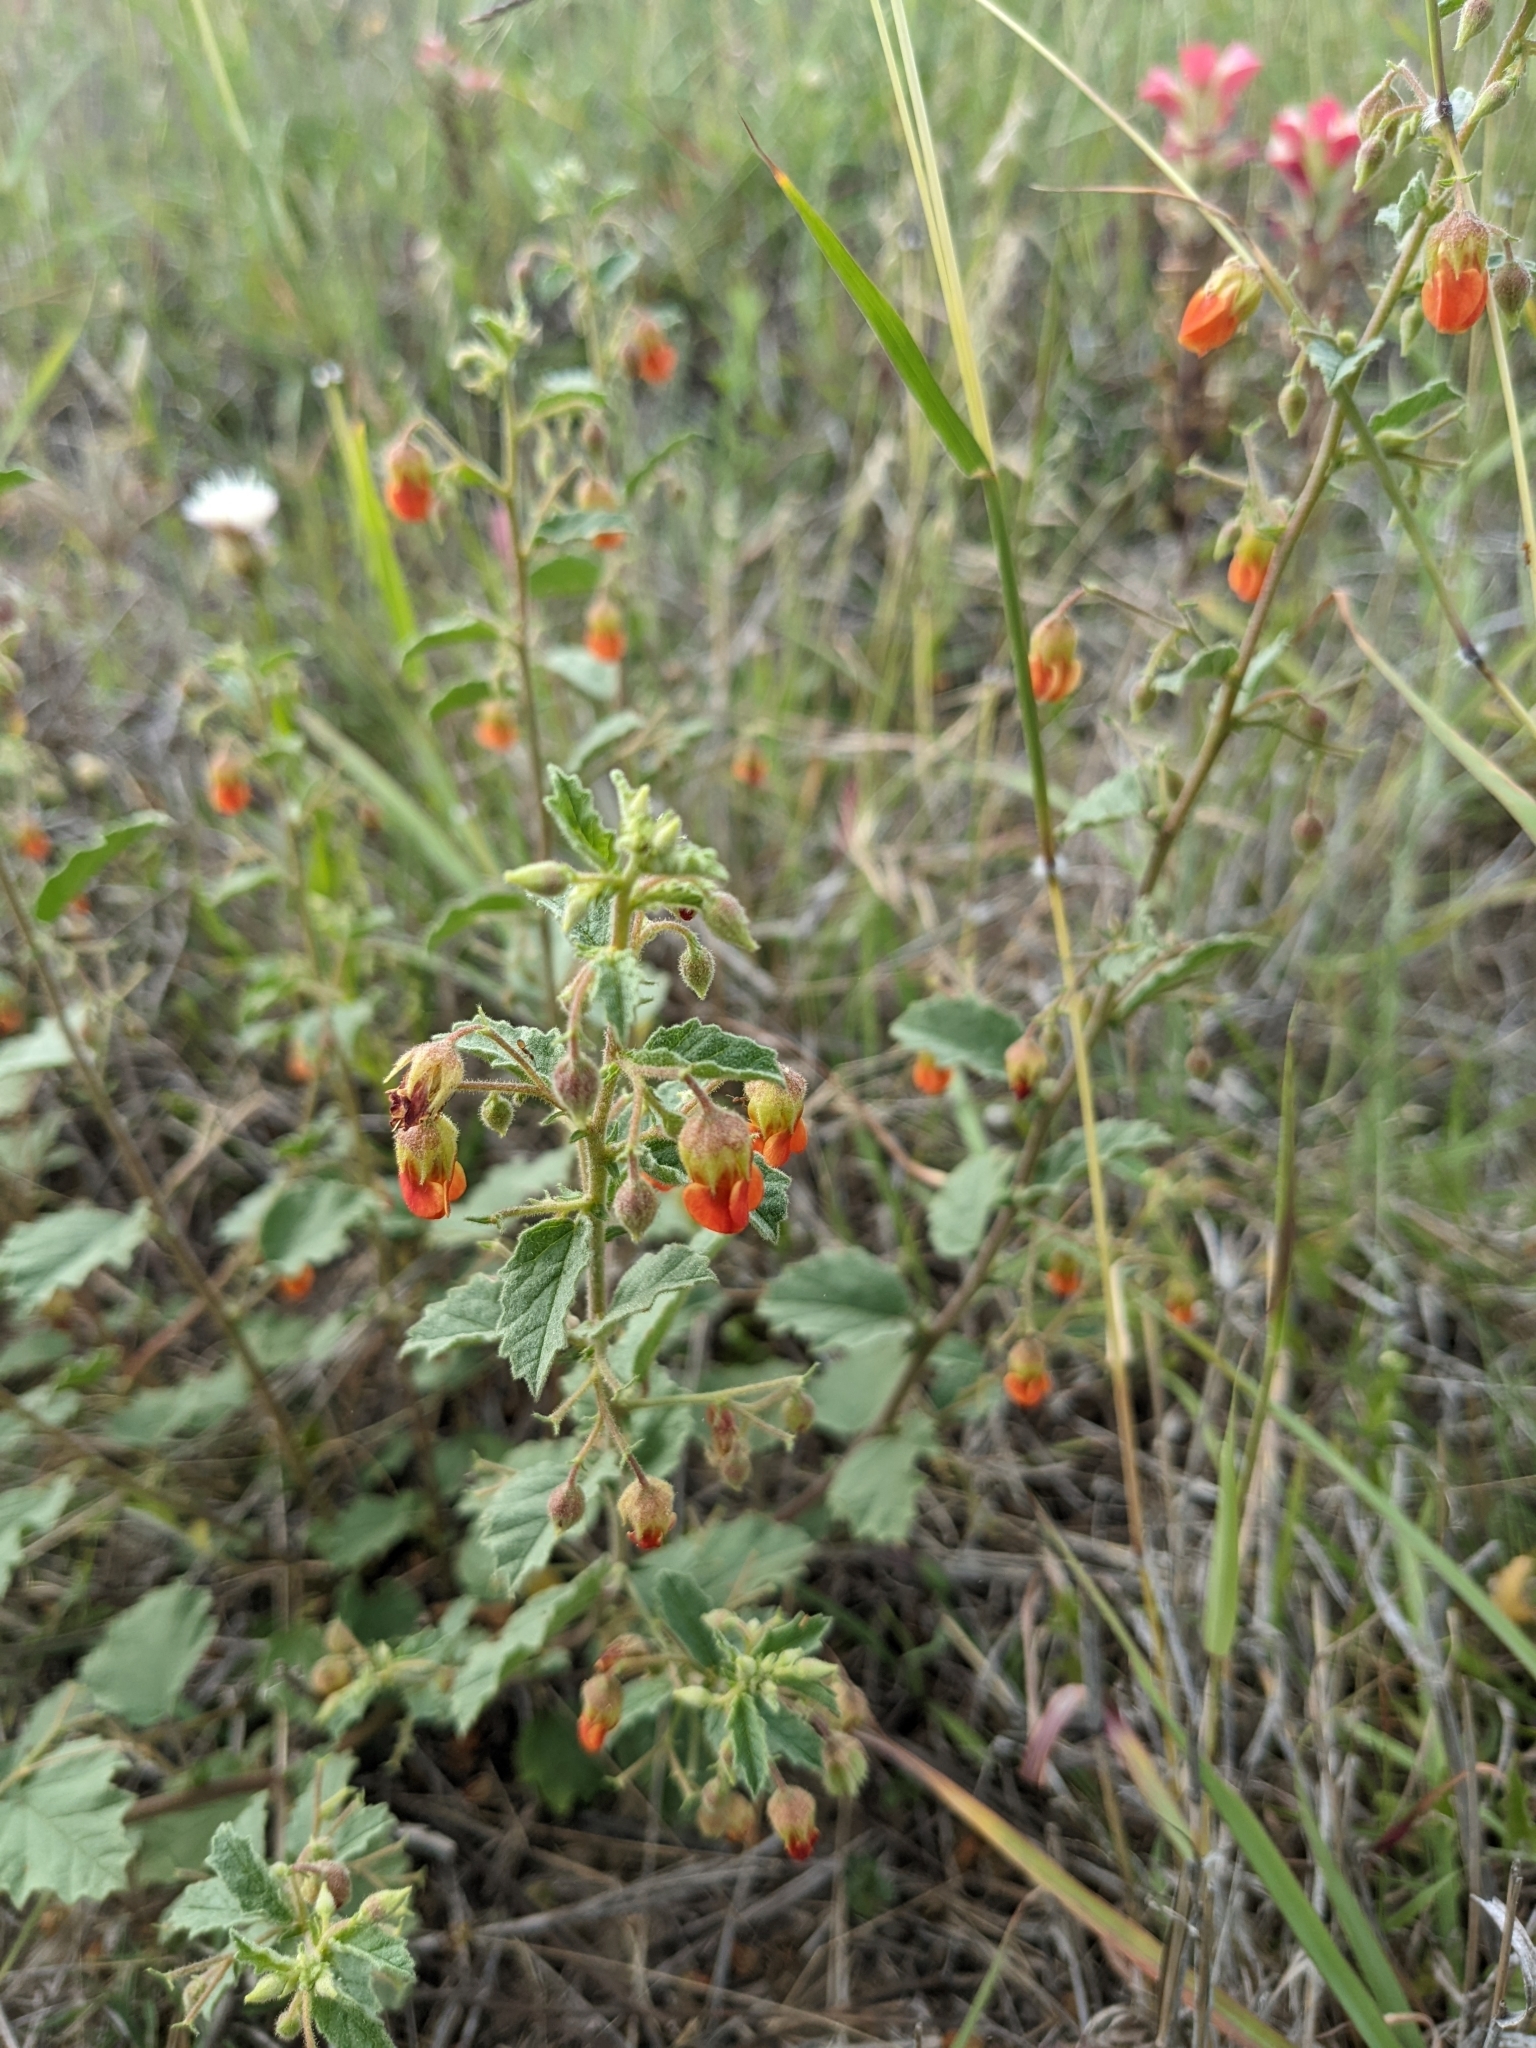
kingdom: Plantae
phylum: Tracheophyta
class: Magnoliopsida
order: Malvales
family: Malvaceae
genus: Hermannia
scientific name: Hermannia texana
